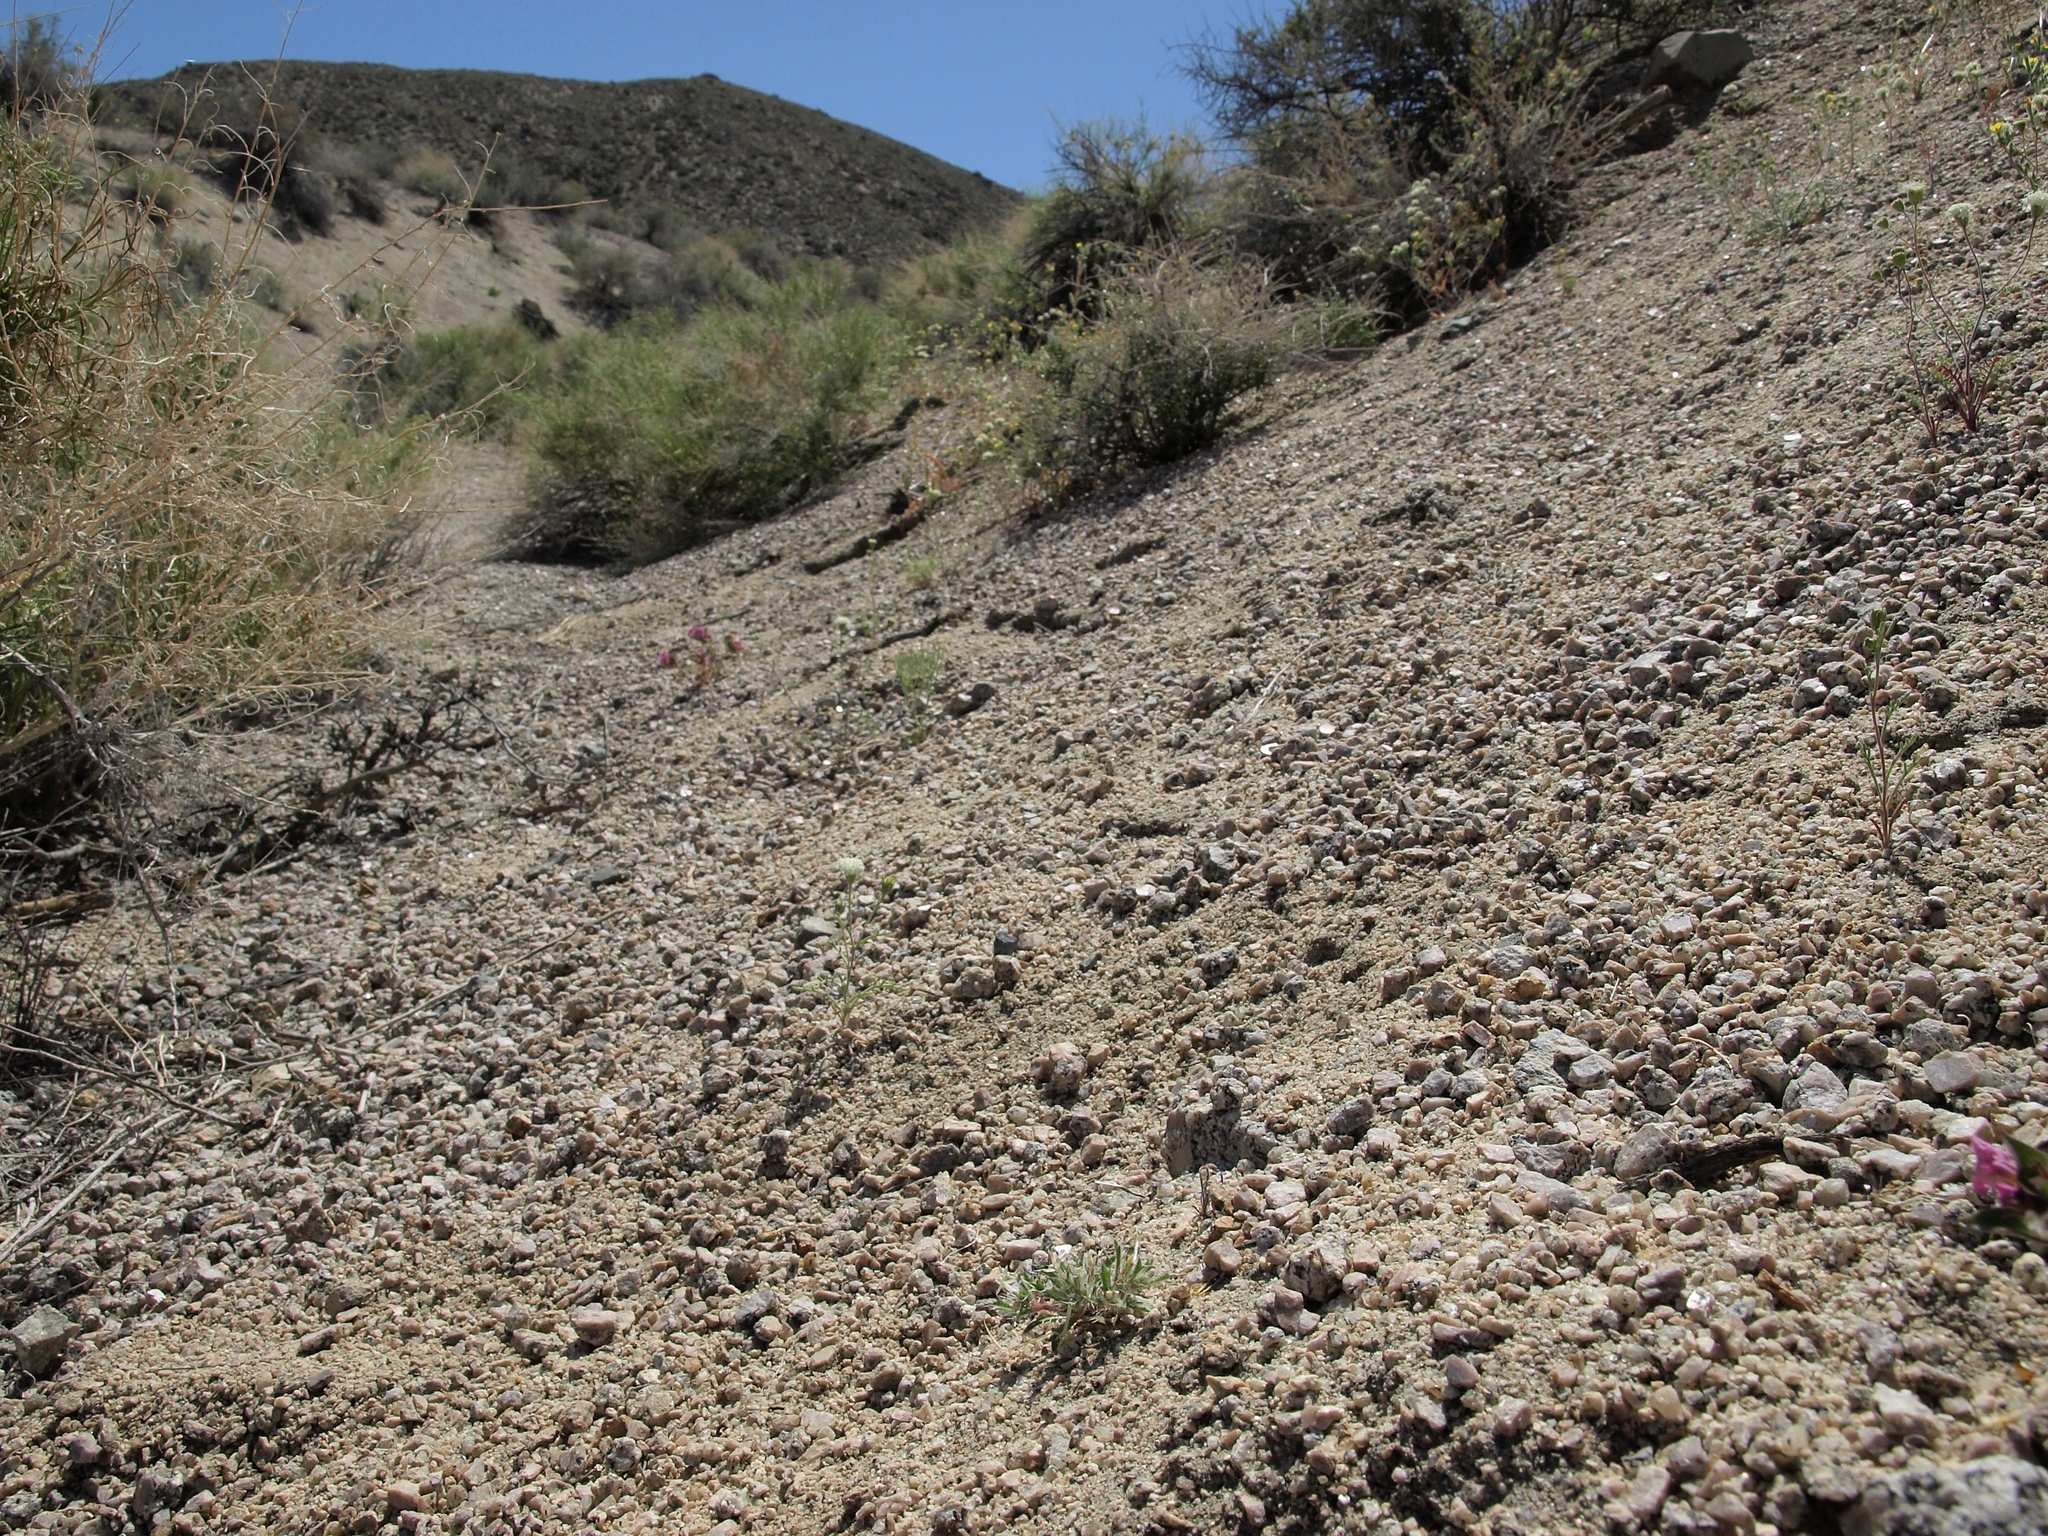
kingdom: Plantae
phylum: Tracheophyta
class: Magnoliopsida
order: Ericales
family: Polemoniaceae
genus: Loeseliastrum
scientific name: Loeseliastrum schottii
